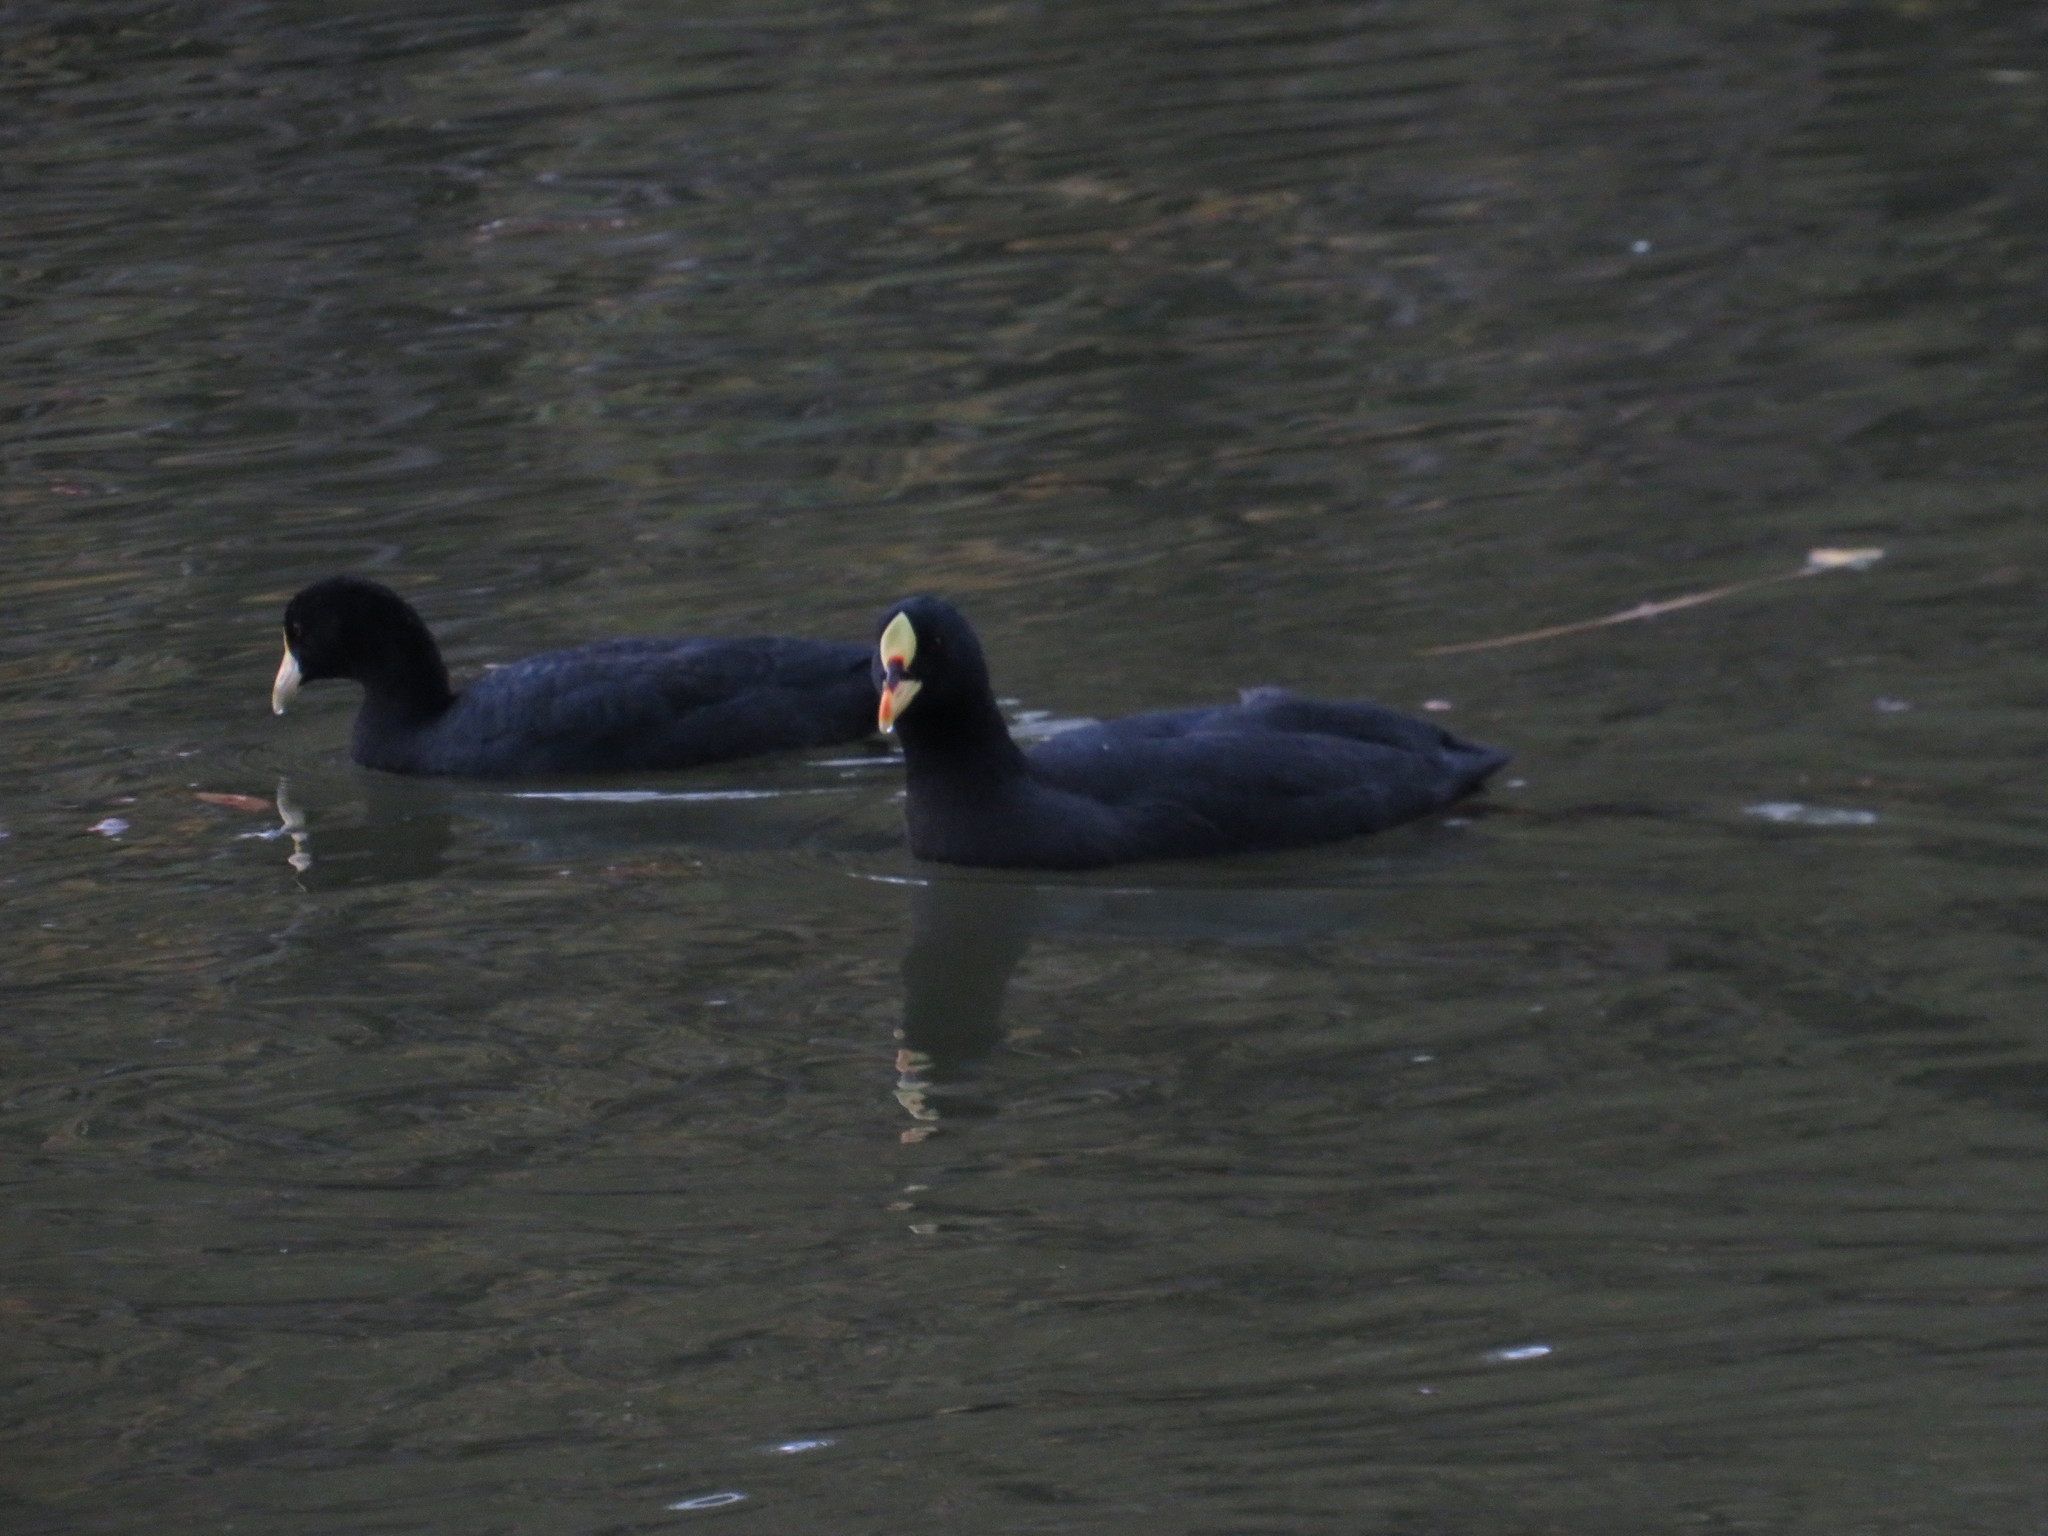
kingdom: Animalia
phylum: Chordata
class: Aves
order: Gruiformes
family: Rallidae
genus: Fulica
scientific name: Fulica armillata
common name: Red-gartered coot
